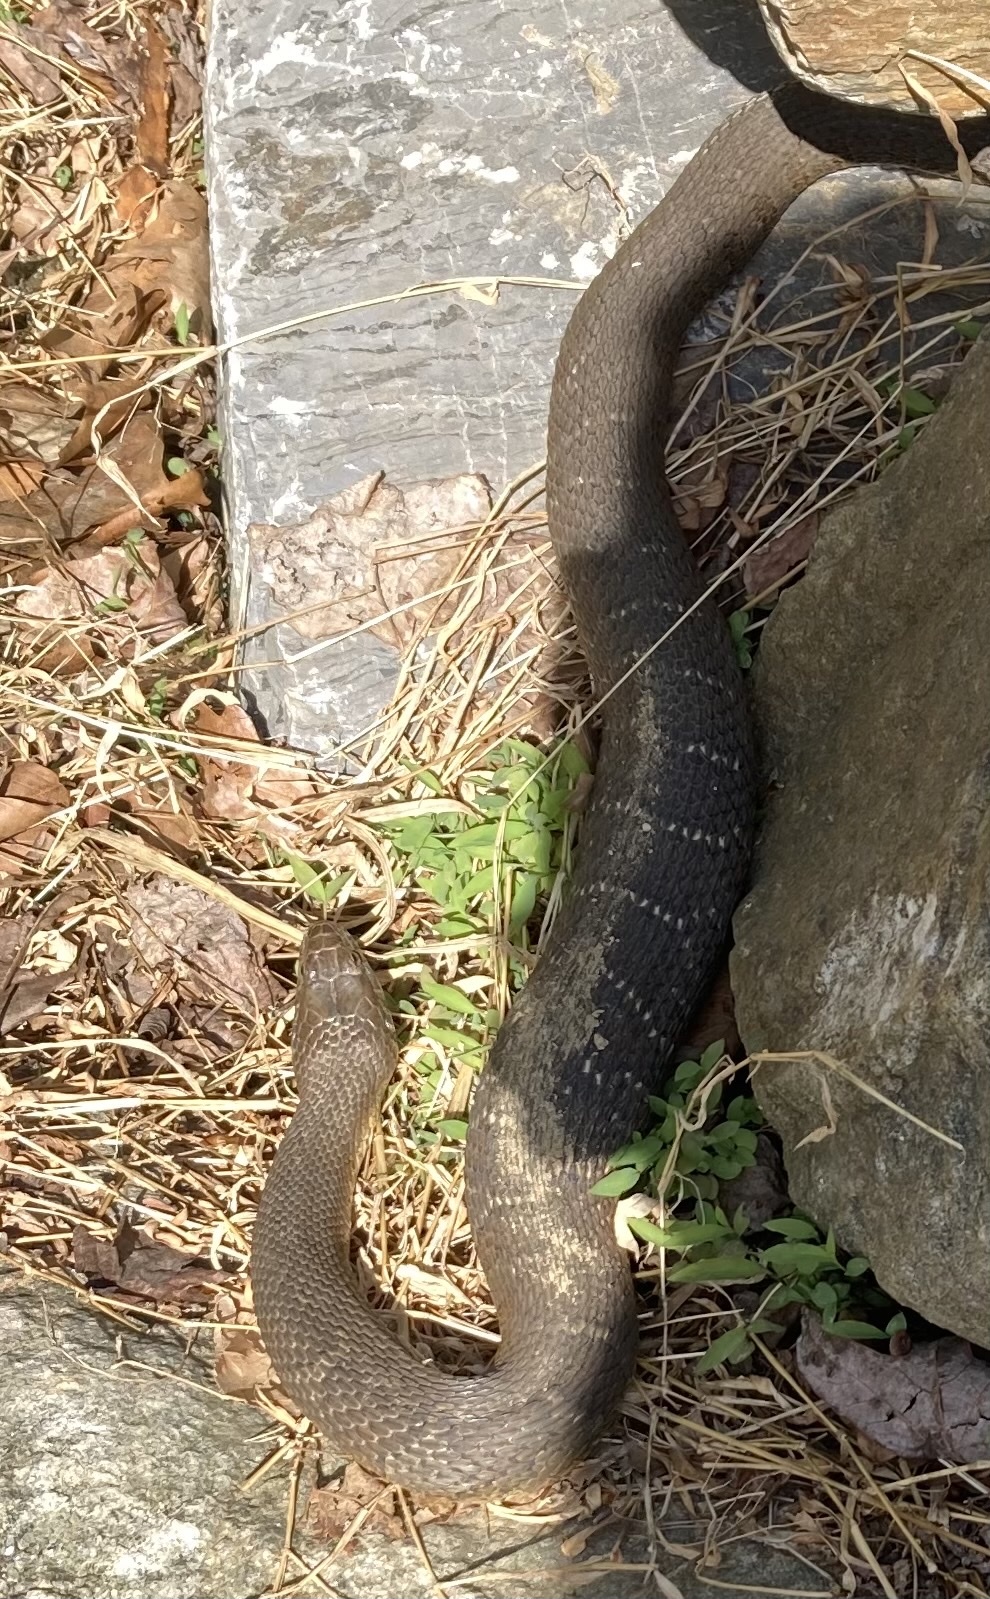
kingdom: Animalia
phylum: Chordata
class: Squamata
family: Colubridae
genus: Nerodia
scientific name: Nerodia sipedon
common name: Northern water snake
